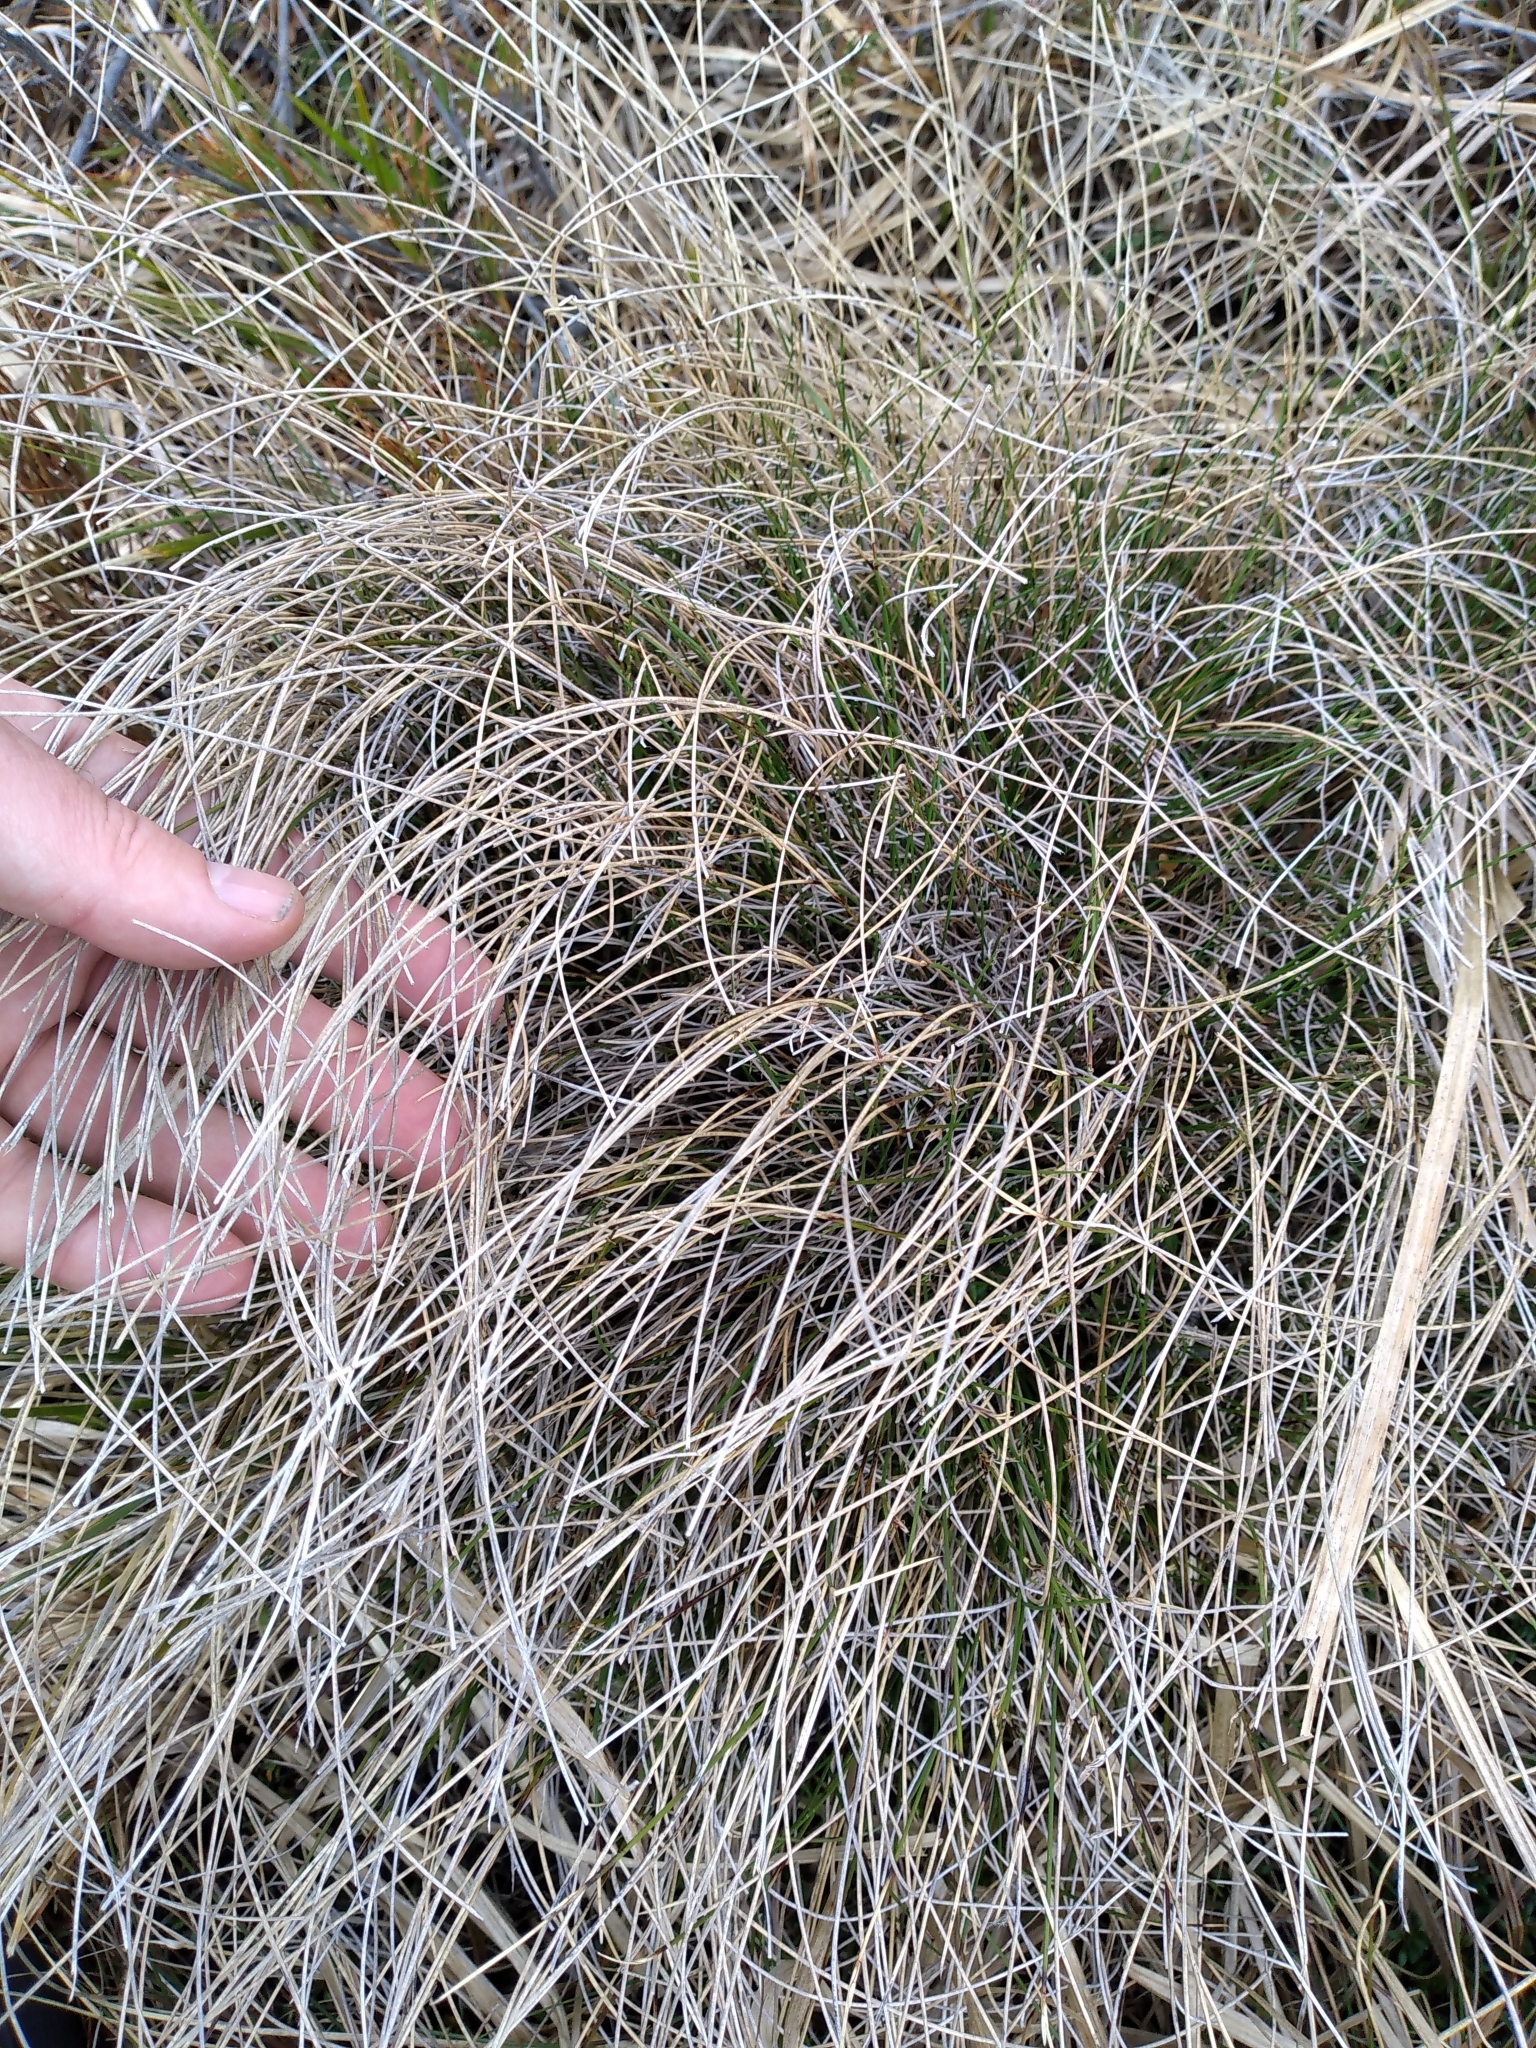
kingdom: Plantae
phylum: Tracheophyta
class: Liliopsida
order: Poales
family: Cyperaceae
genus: Schoenus
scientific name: Schoenus pauciflorus
